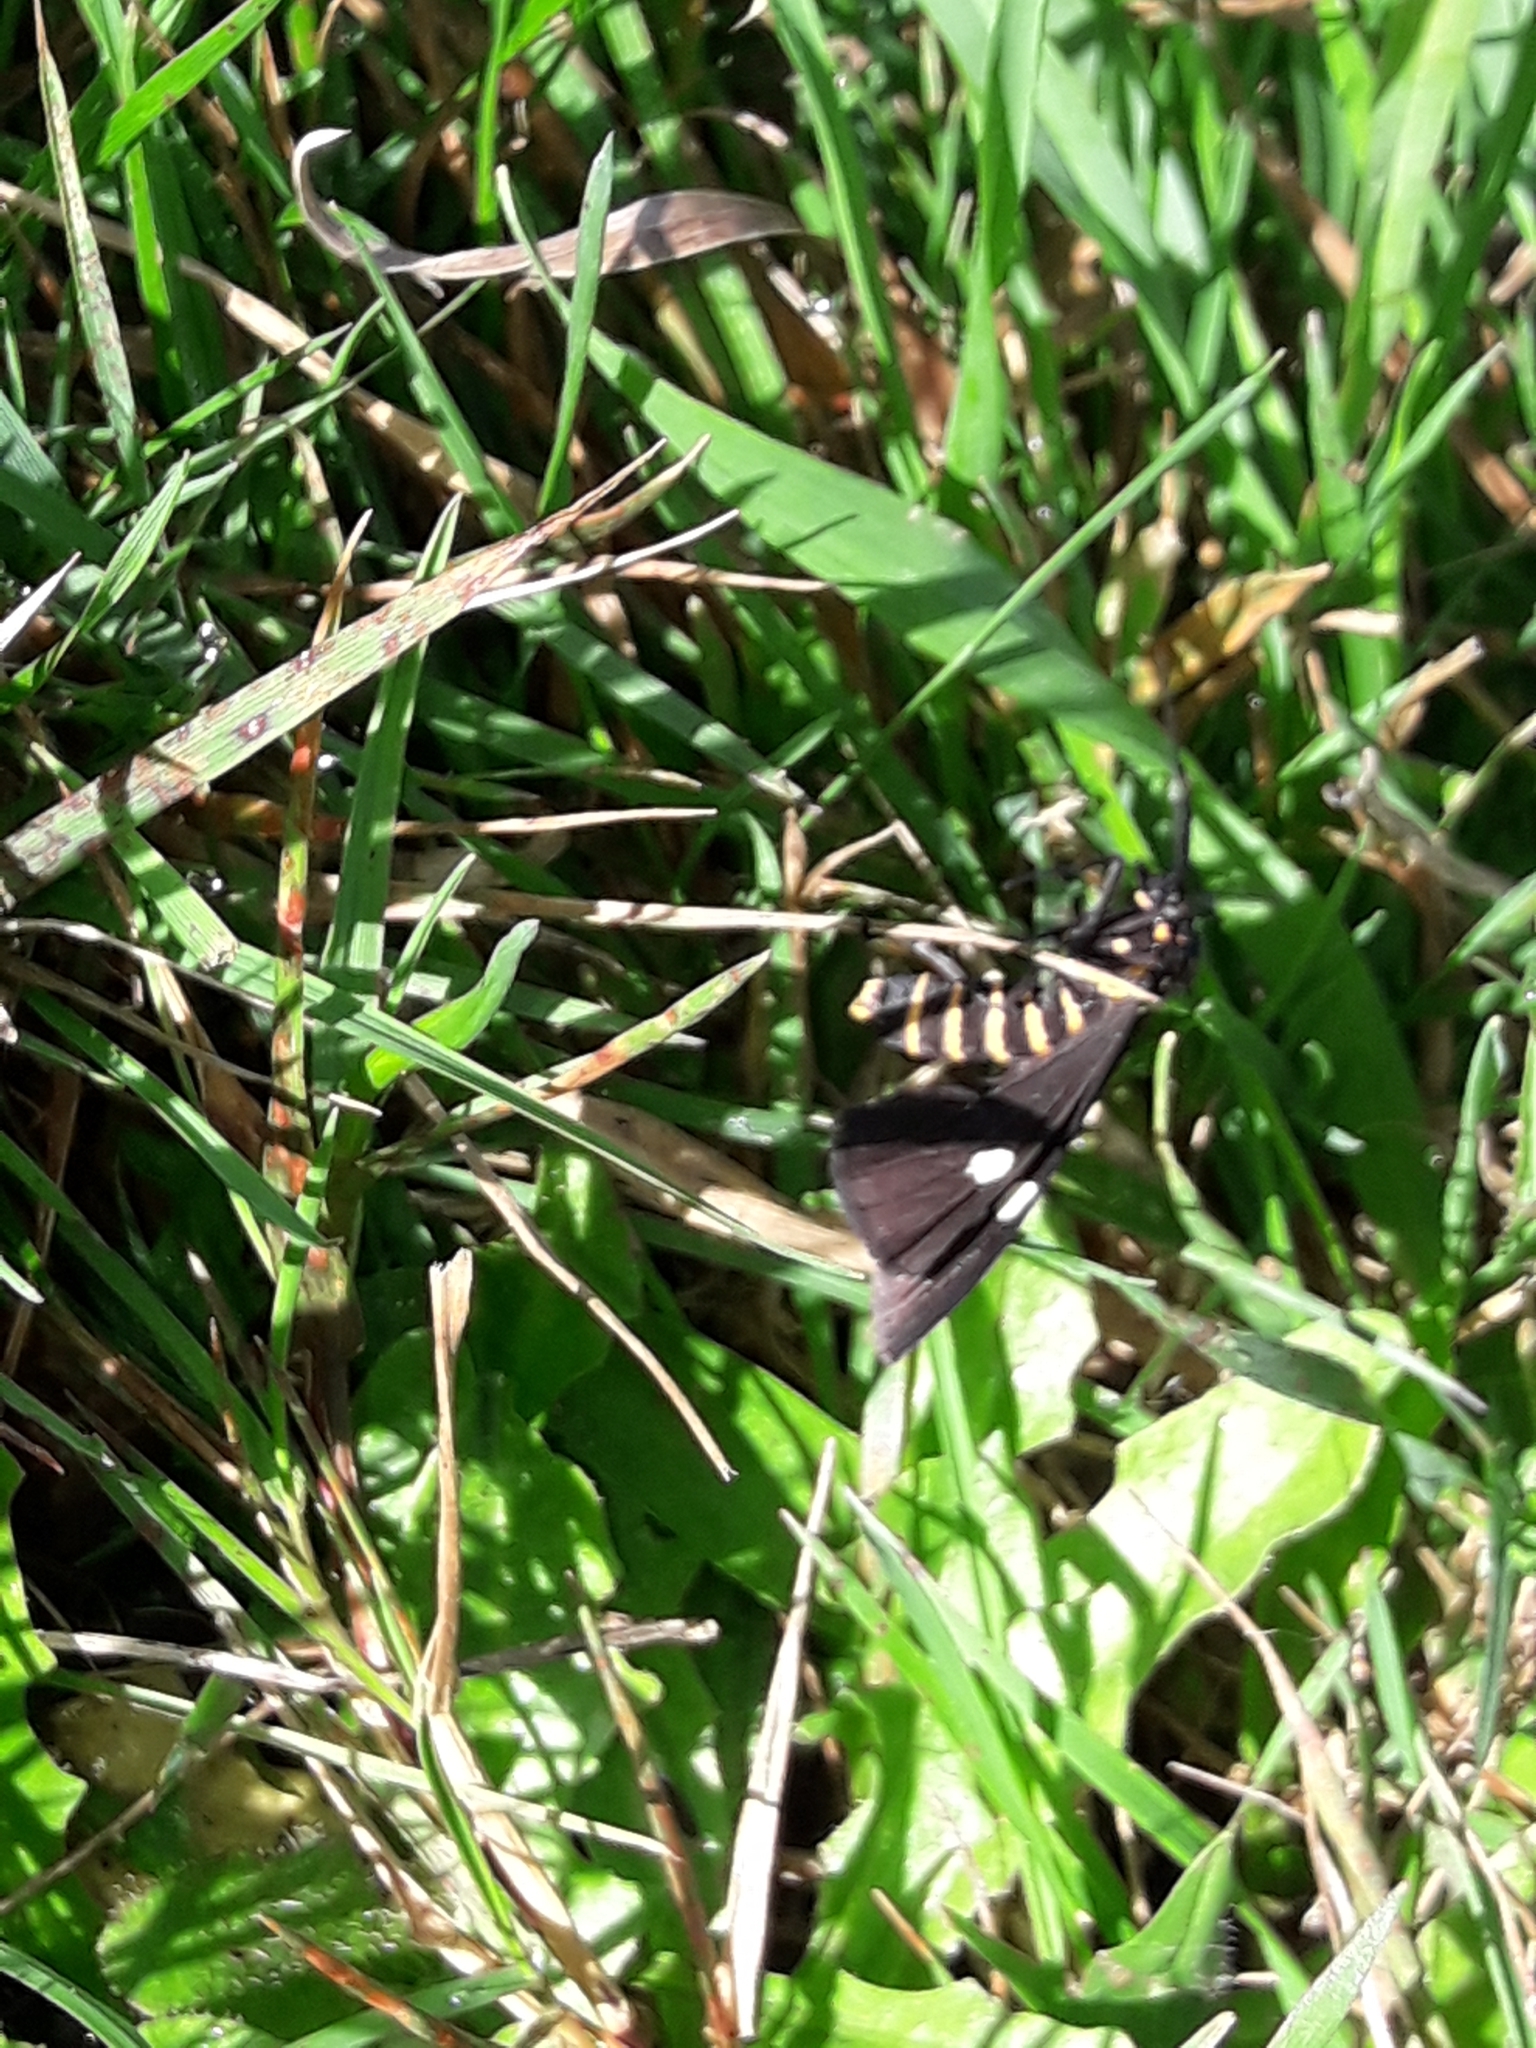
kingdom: Animalia
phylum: Arthropoda
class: Insecta
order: Lepidoptera
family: Erebidae
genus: Nyctemera
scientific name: Nyctemera annulatum
